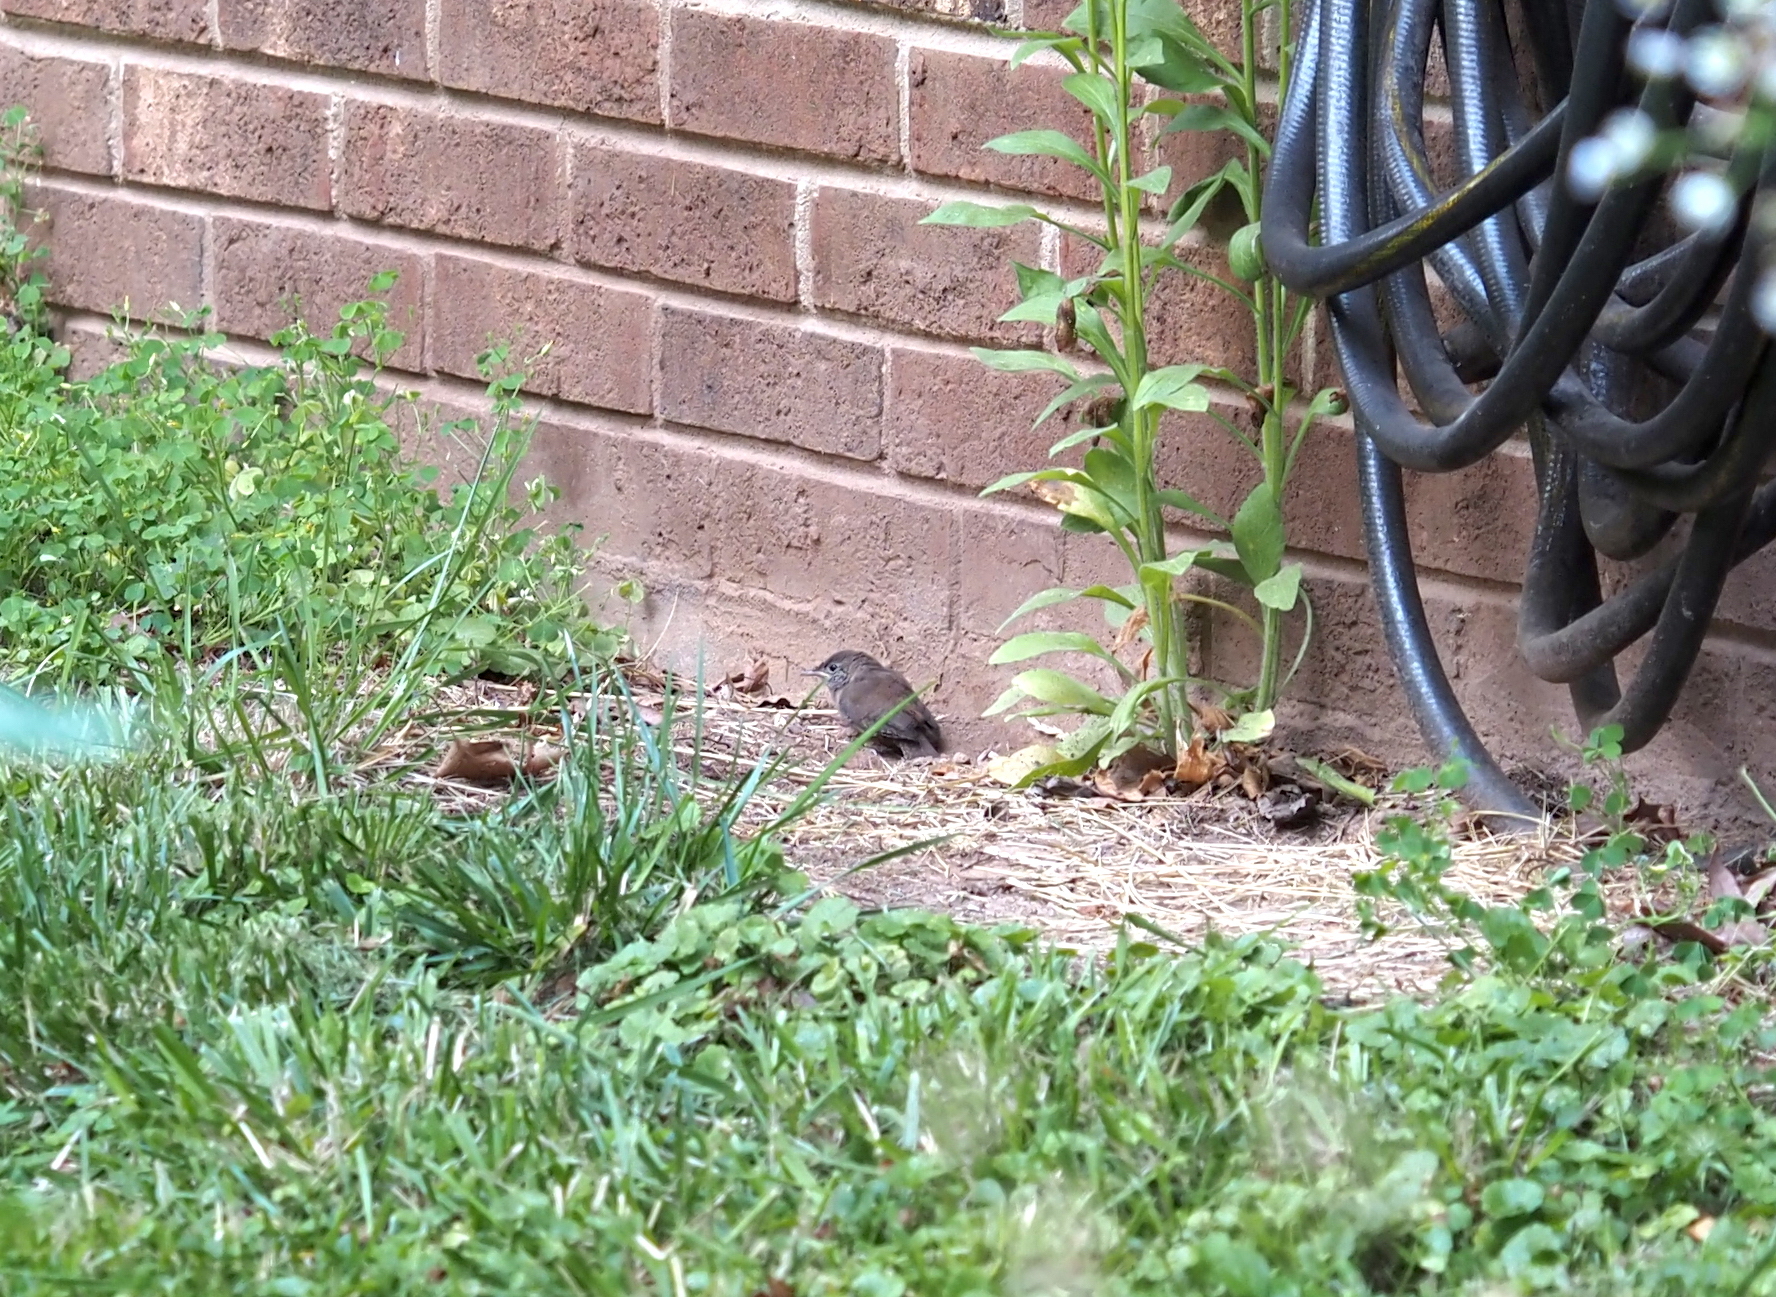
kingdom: Animalia
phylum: Chordata
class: Aves
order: Passeriformes
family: Troglodytidae
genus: Troglodytes
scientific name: Troglodytes aedon
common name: House wren
